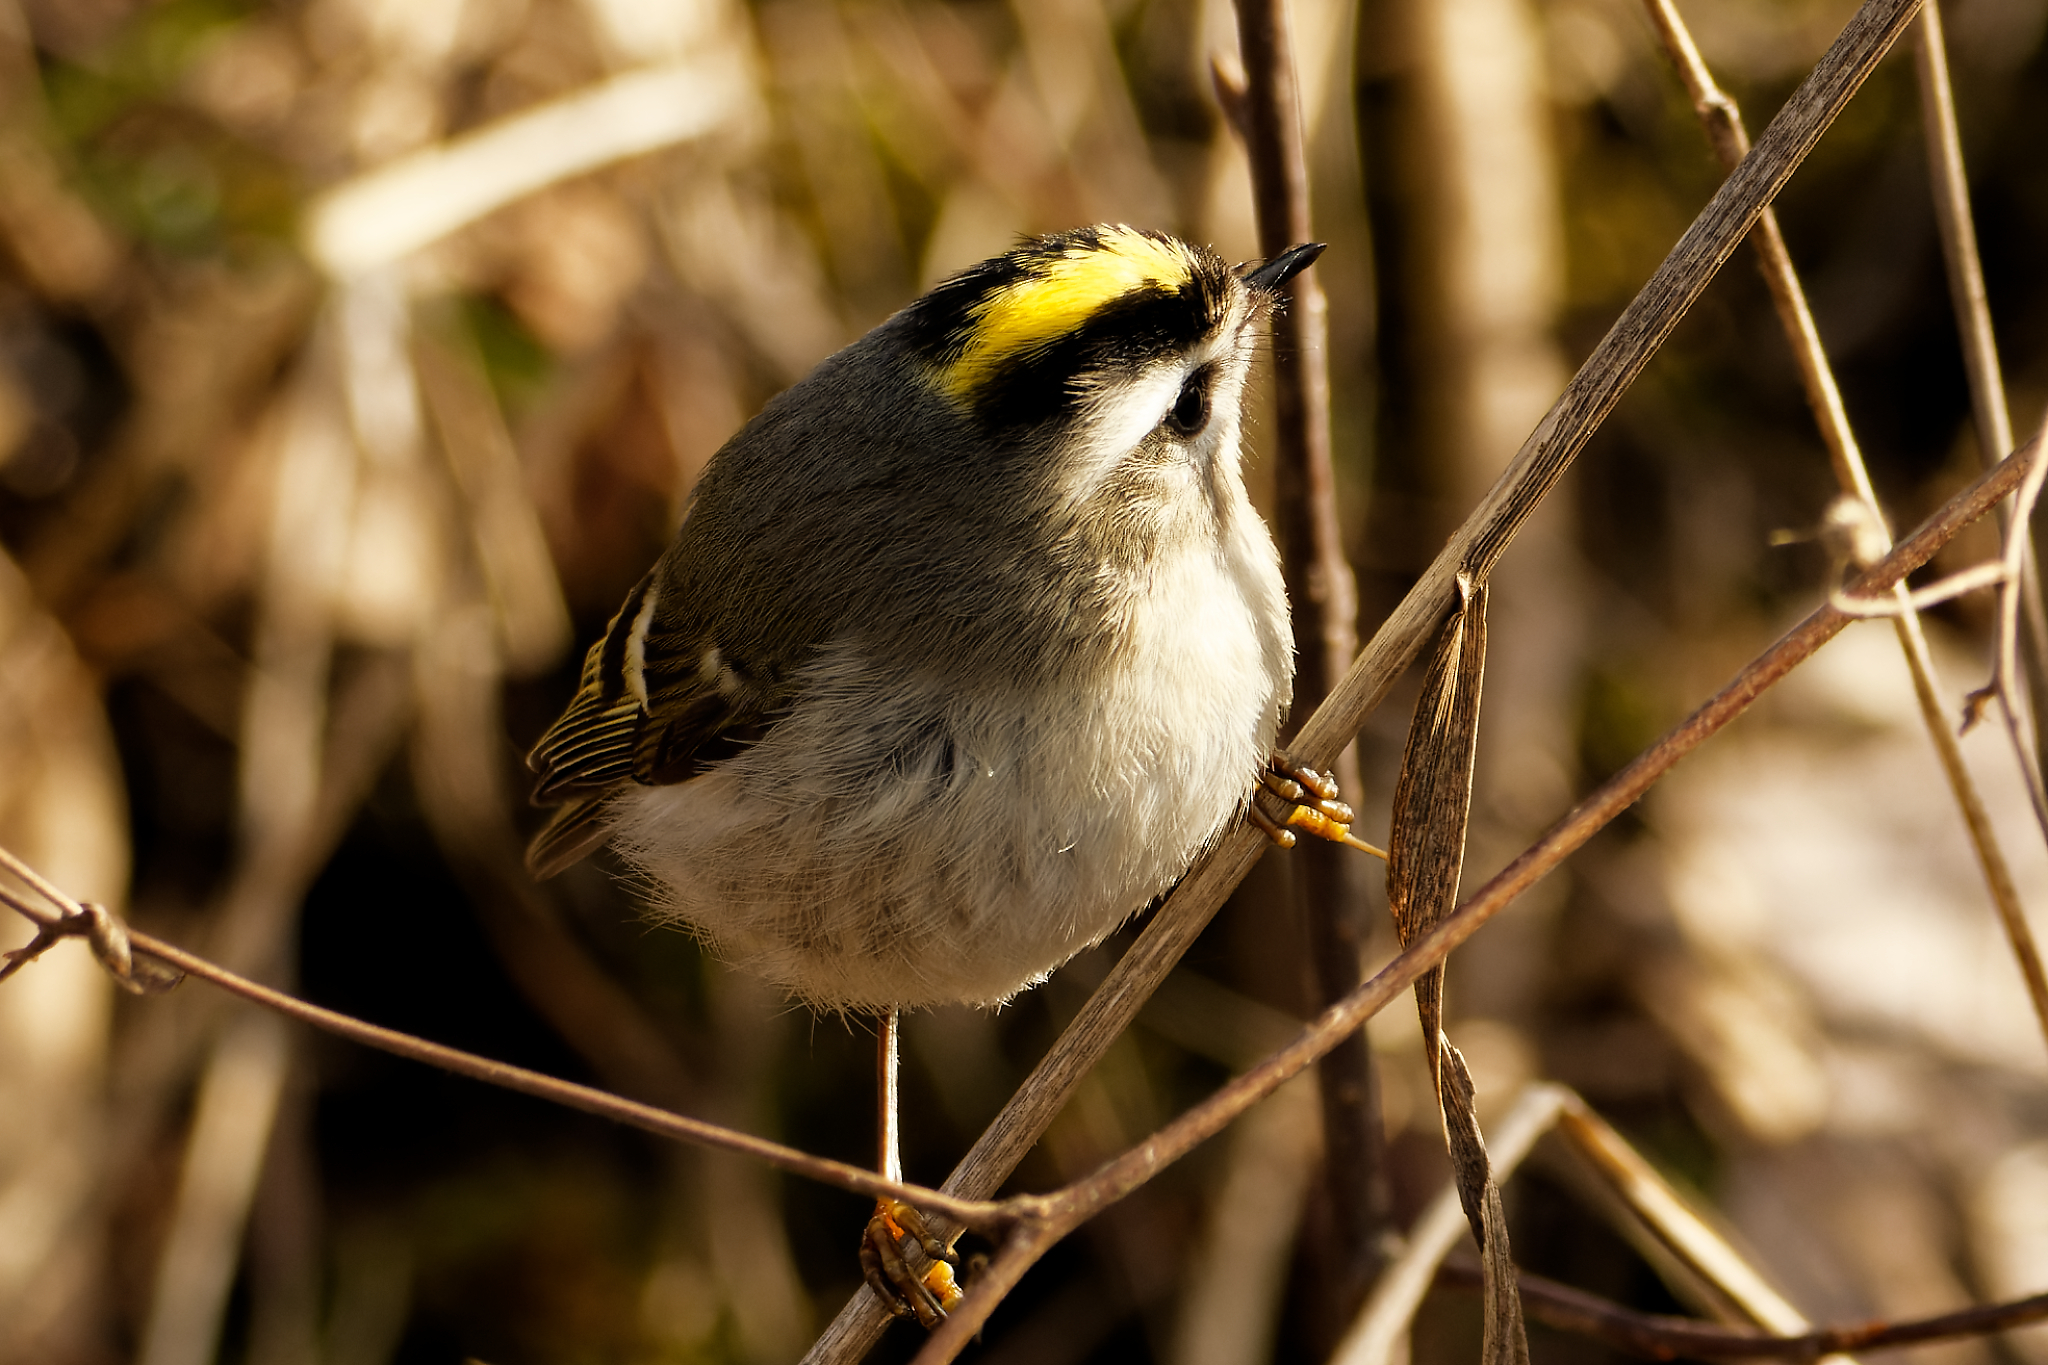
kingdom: Animalia
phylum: Chordata
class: Aves
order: Passeriformes
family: Regulidae
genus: Regulus
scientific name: Regulus satrapa
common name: Golden-crowned kinglet
